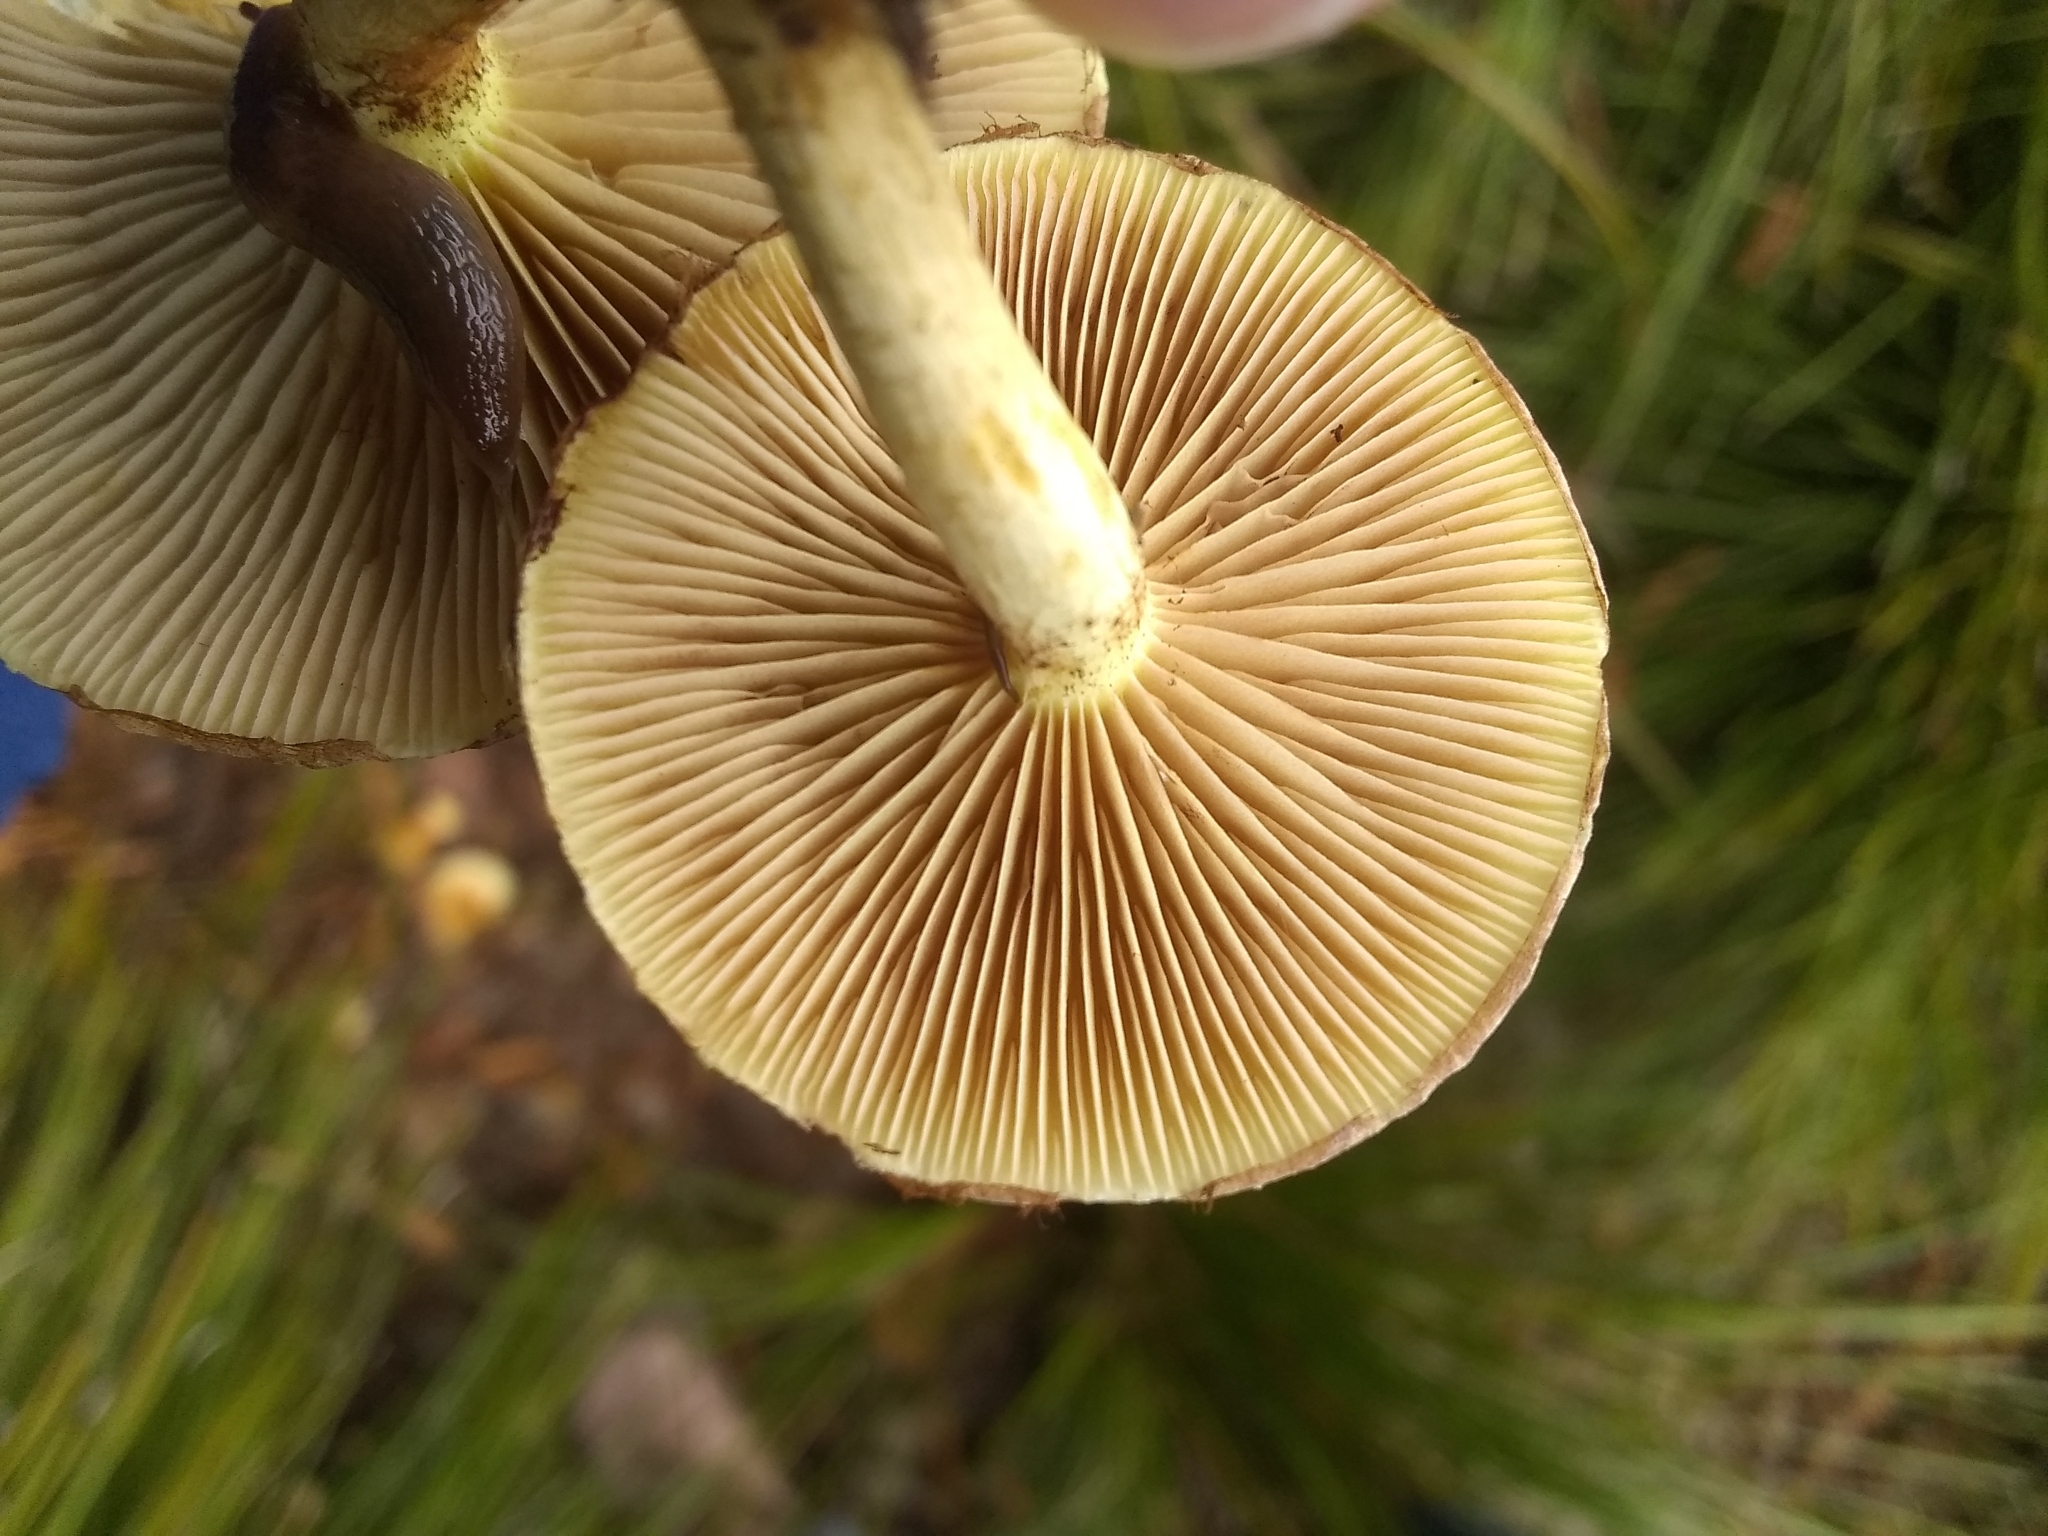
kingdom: Fungi
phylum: Basidiomycota
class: Agaricomycetes
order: Agaricales
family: Strophariaceae
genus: Pholiota
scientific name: Pholiota spumosa
